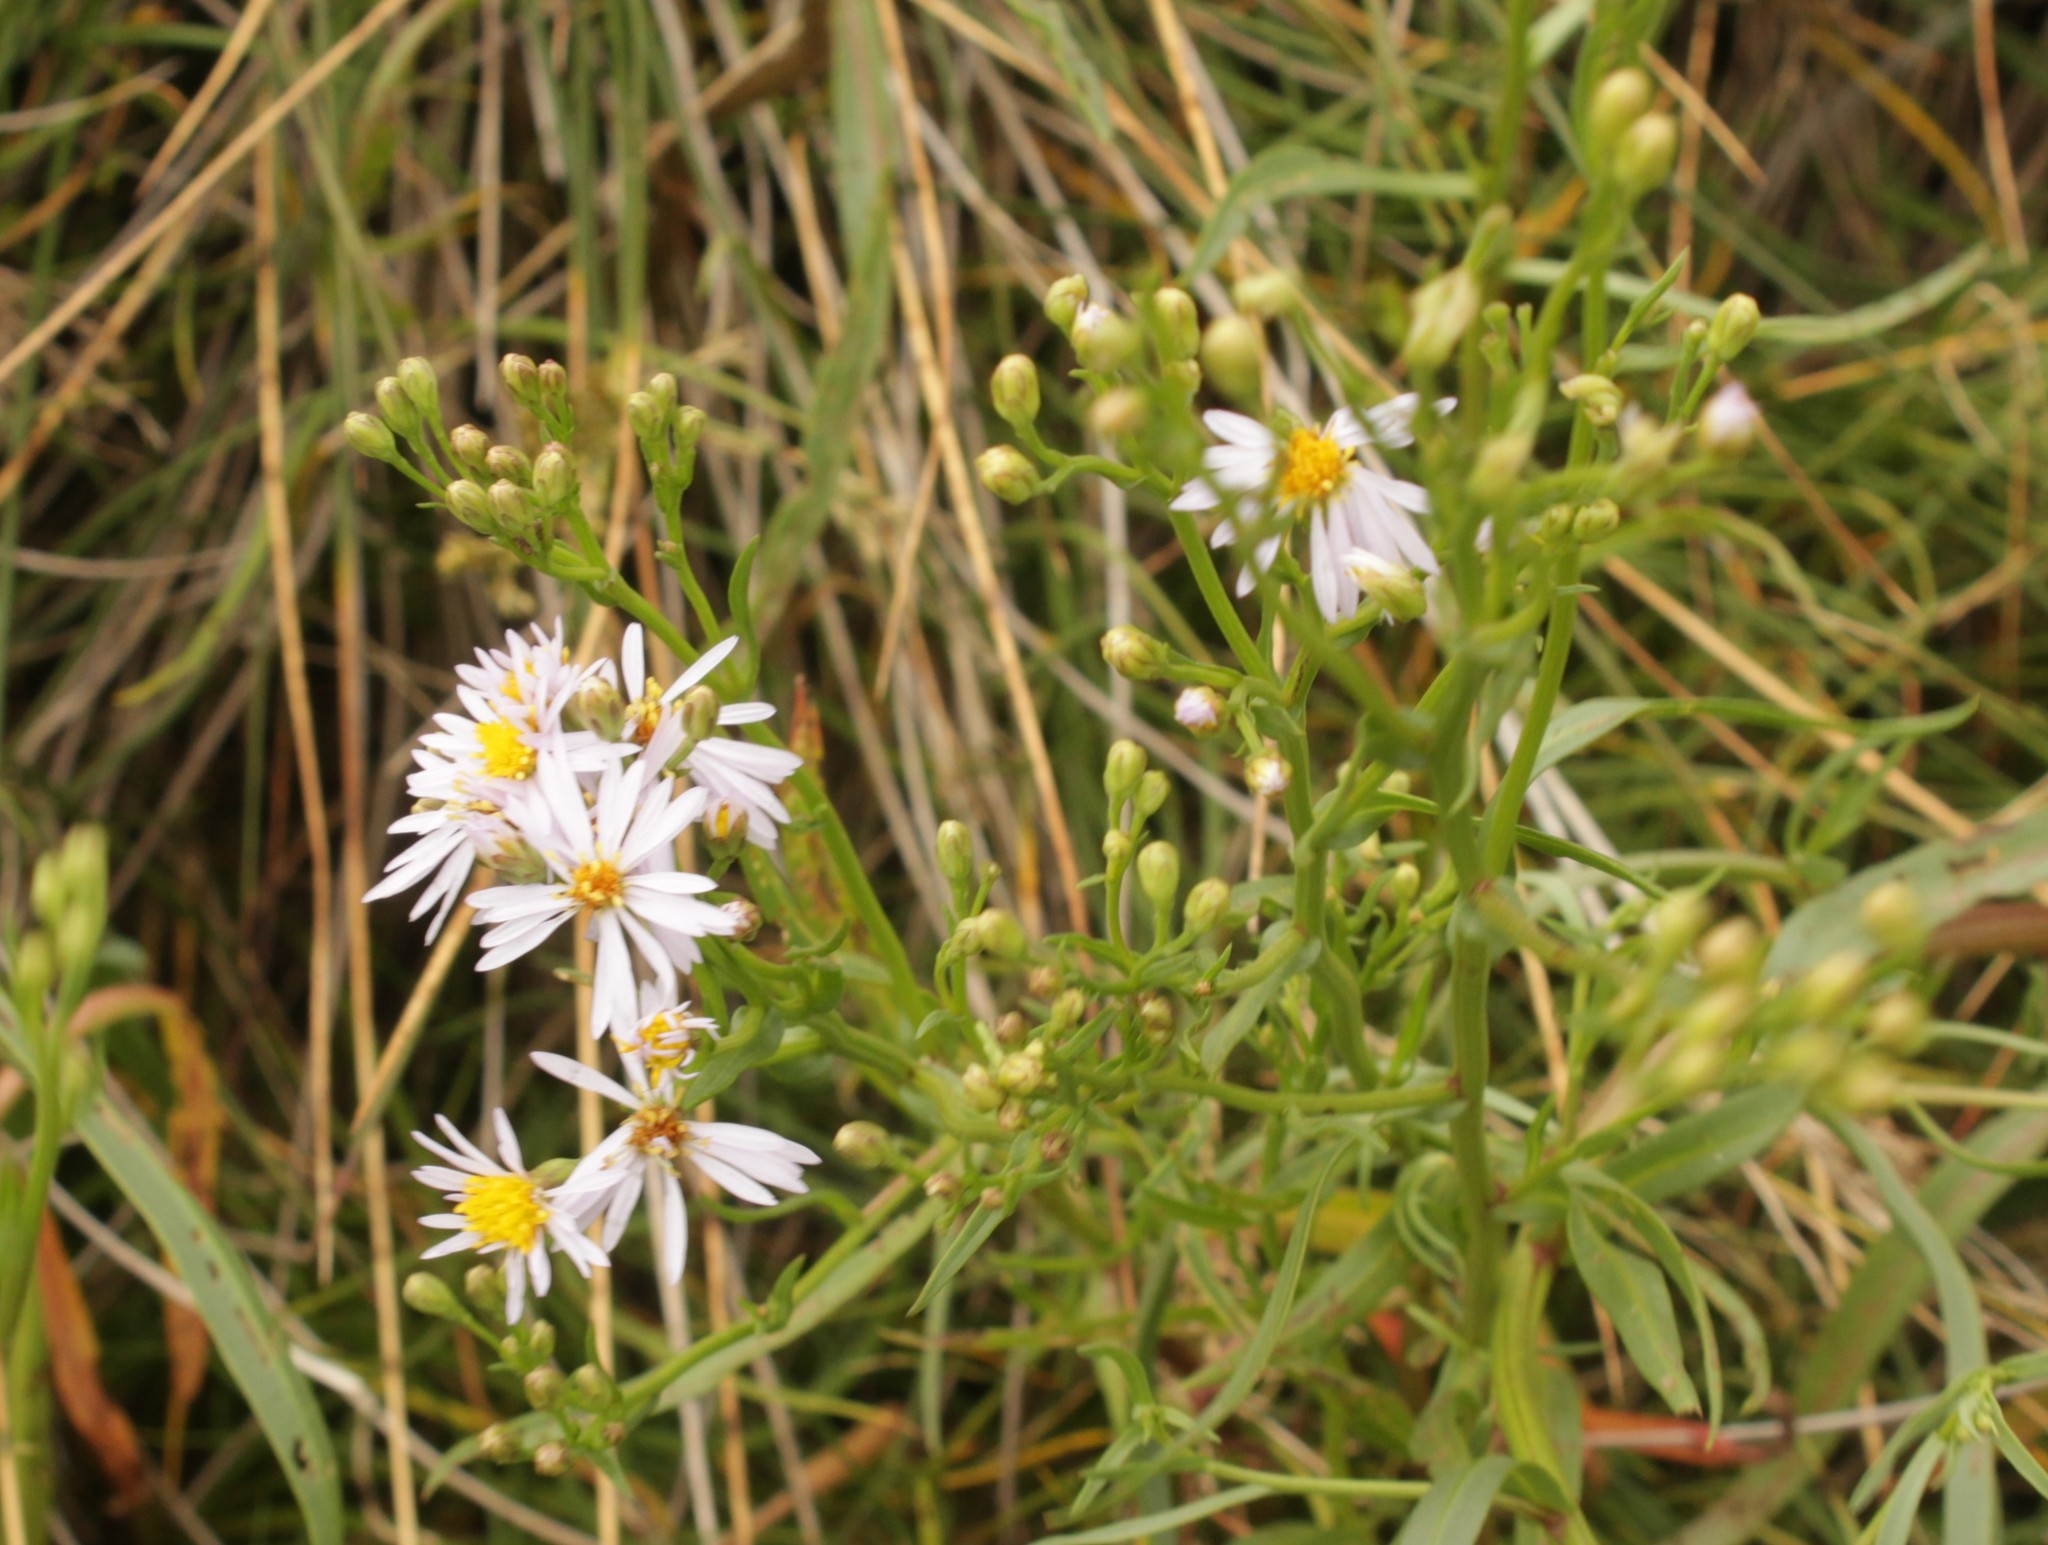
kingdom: Plantae
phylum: Tracheophyta
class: Magnoliopsida
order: Asterales
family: Asteraceae
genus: Tripolium
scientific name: Tripolium pannonicum
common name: Sea aster
